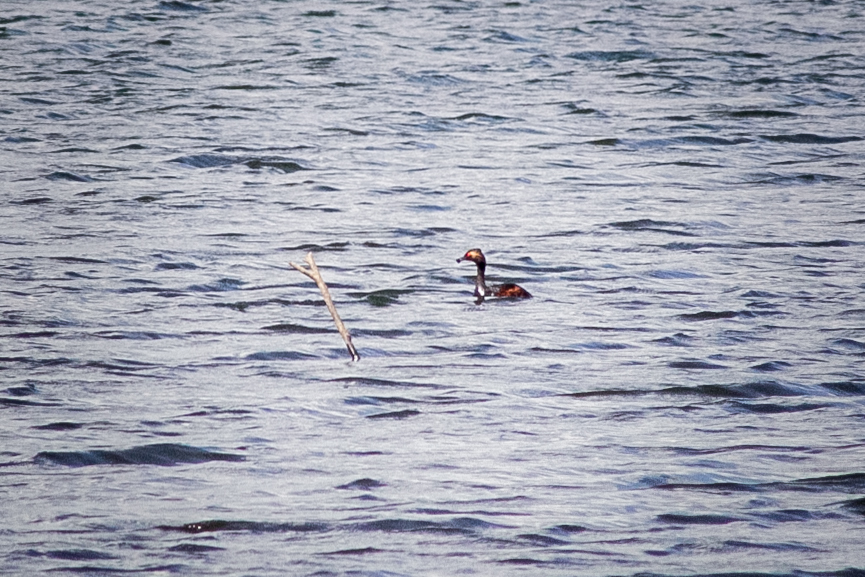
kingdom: Animalia
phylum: Chordata
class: Aves
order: Podicipediformes
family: Podicipedidae
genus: Podiceps
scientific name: Podiceps nigricollis
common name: Black-necked grebe
